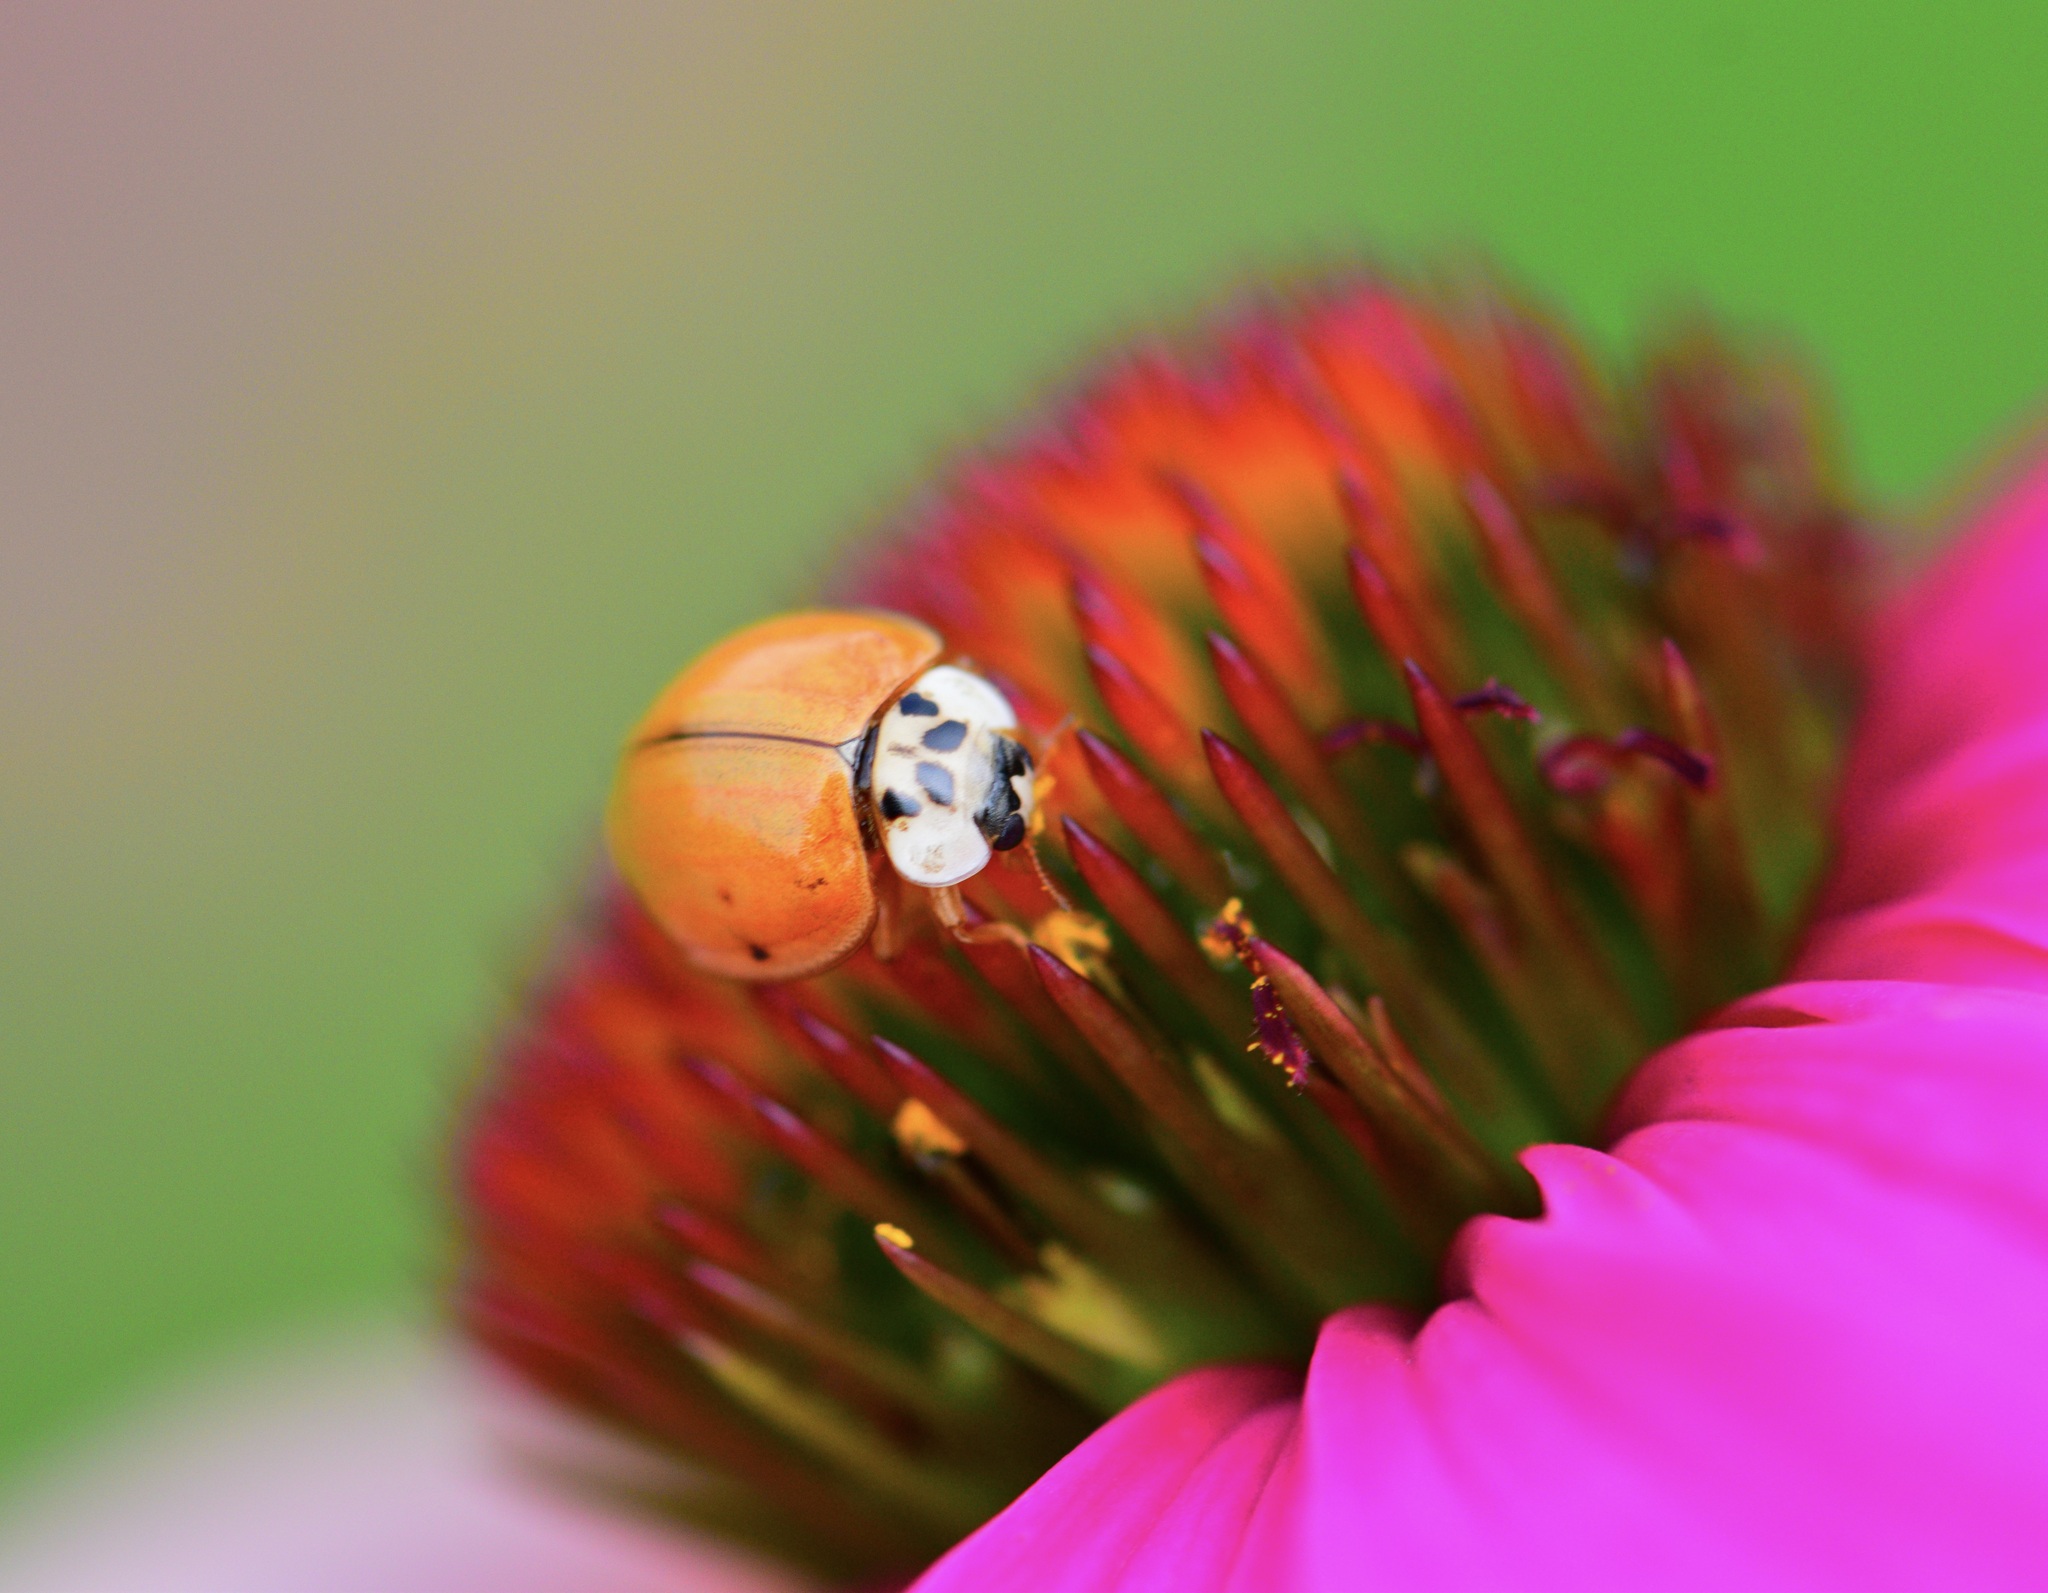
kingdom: Animalia
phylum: Arthropoda
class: Insecta
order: Coleoptera
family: Coccinellidae
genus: Harmonia
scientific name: Harmonia axyridis
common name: Harlequin ladybird
